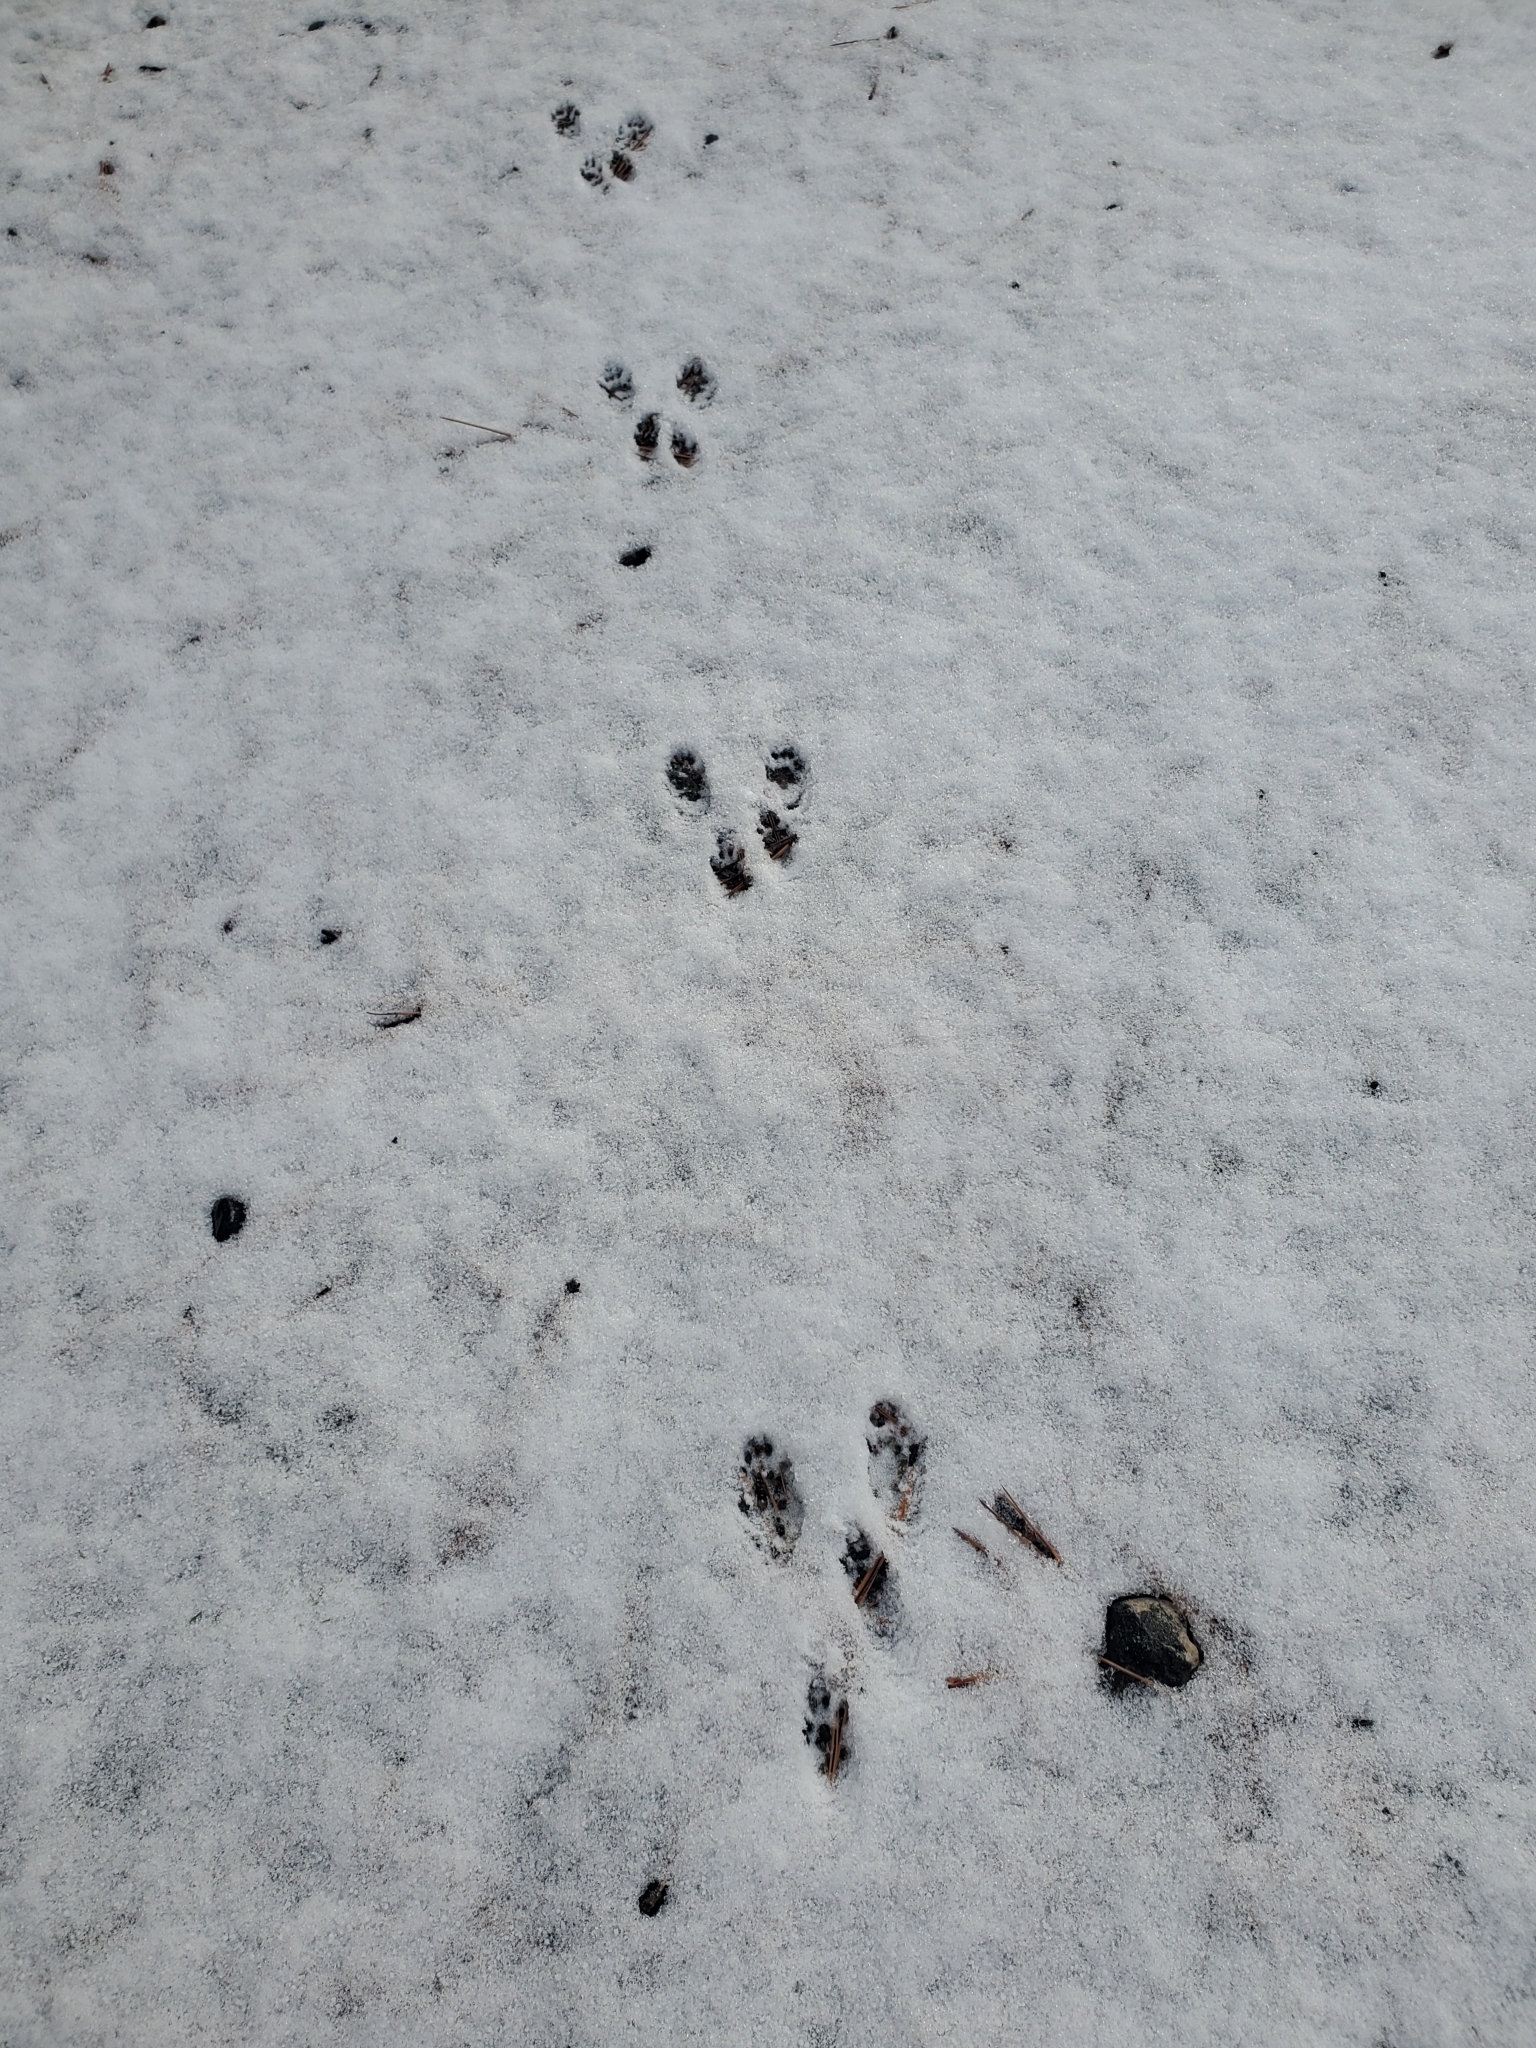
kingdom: Animalia
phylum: Chordata
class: Mammalia
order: Rodentia
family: Sciuridae
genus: Tamiasciurus
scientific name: Tamiasciurus hudsonicus
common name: Red squirrel
